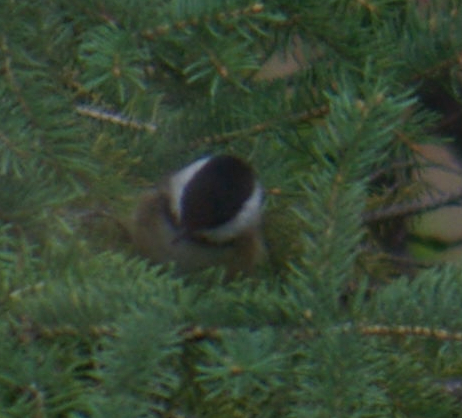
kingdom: Animalia
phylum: Chordata
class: Aves
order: Passeriformes
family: Paridae
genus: Poecile
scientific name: Poecile atricapillus
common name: Black-capped chickadee
